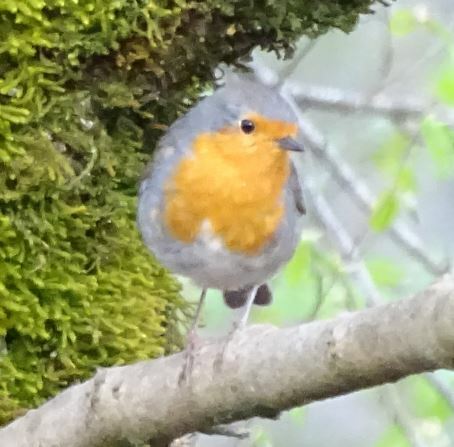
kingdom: Animalia
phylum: Chordata
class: Aves
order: Passeriformes
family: Muscicapidae
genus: Erithacus
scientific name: Erithacus rubecula
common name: European robin
